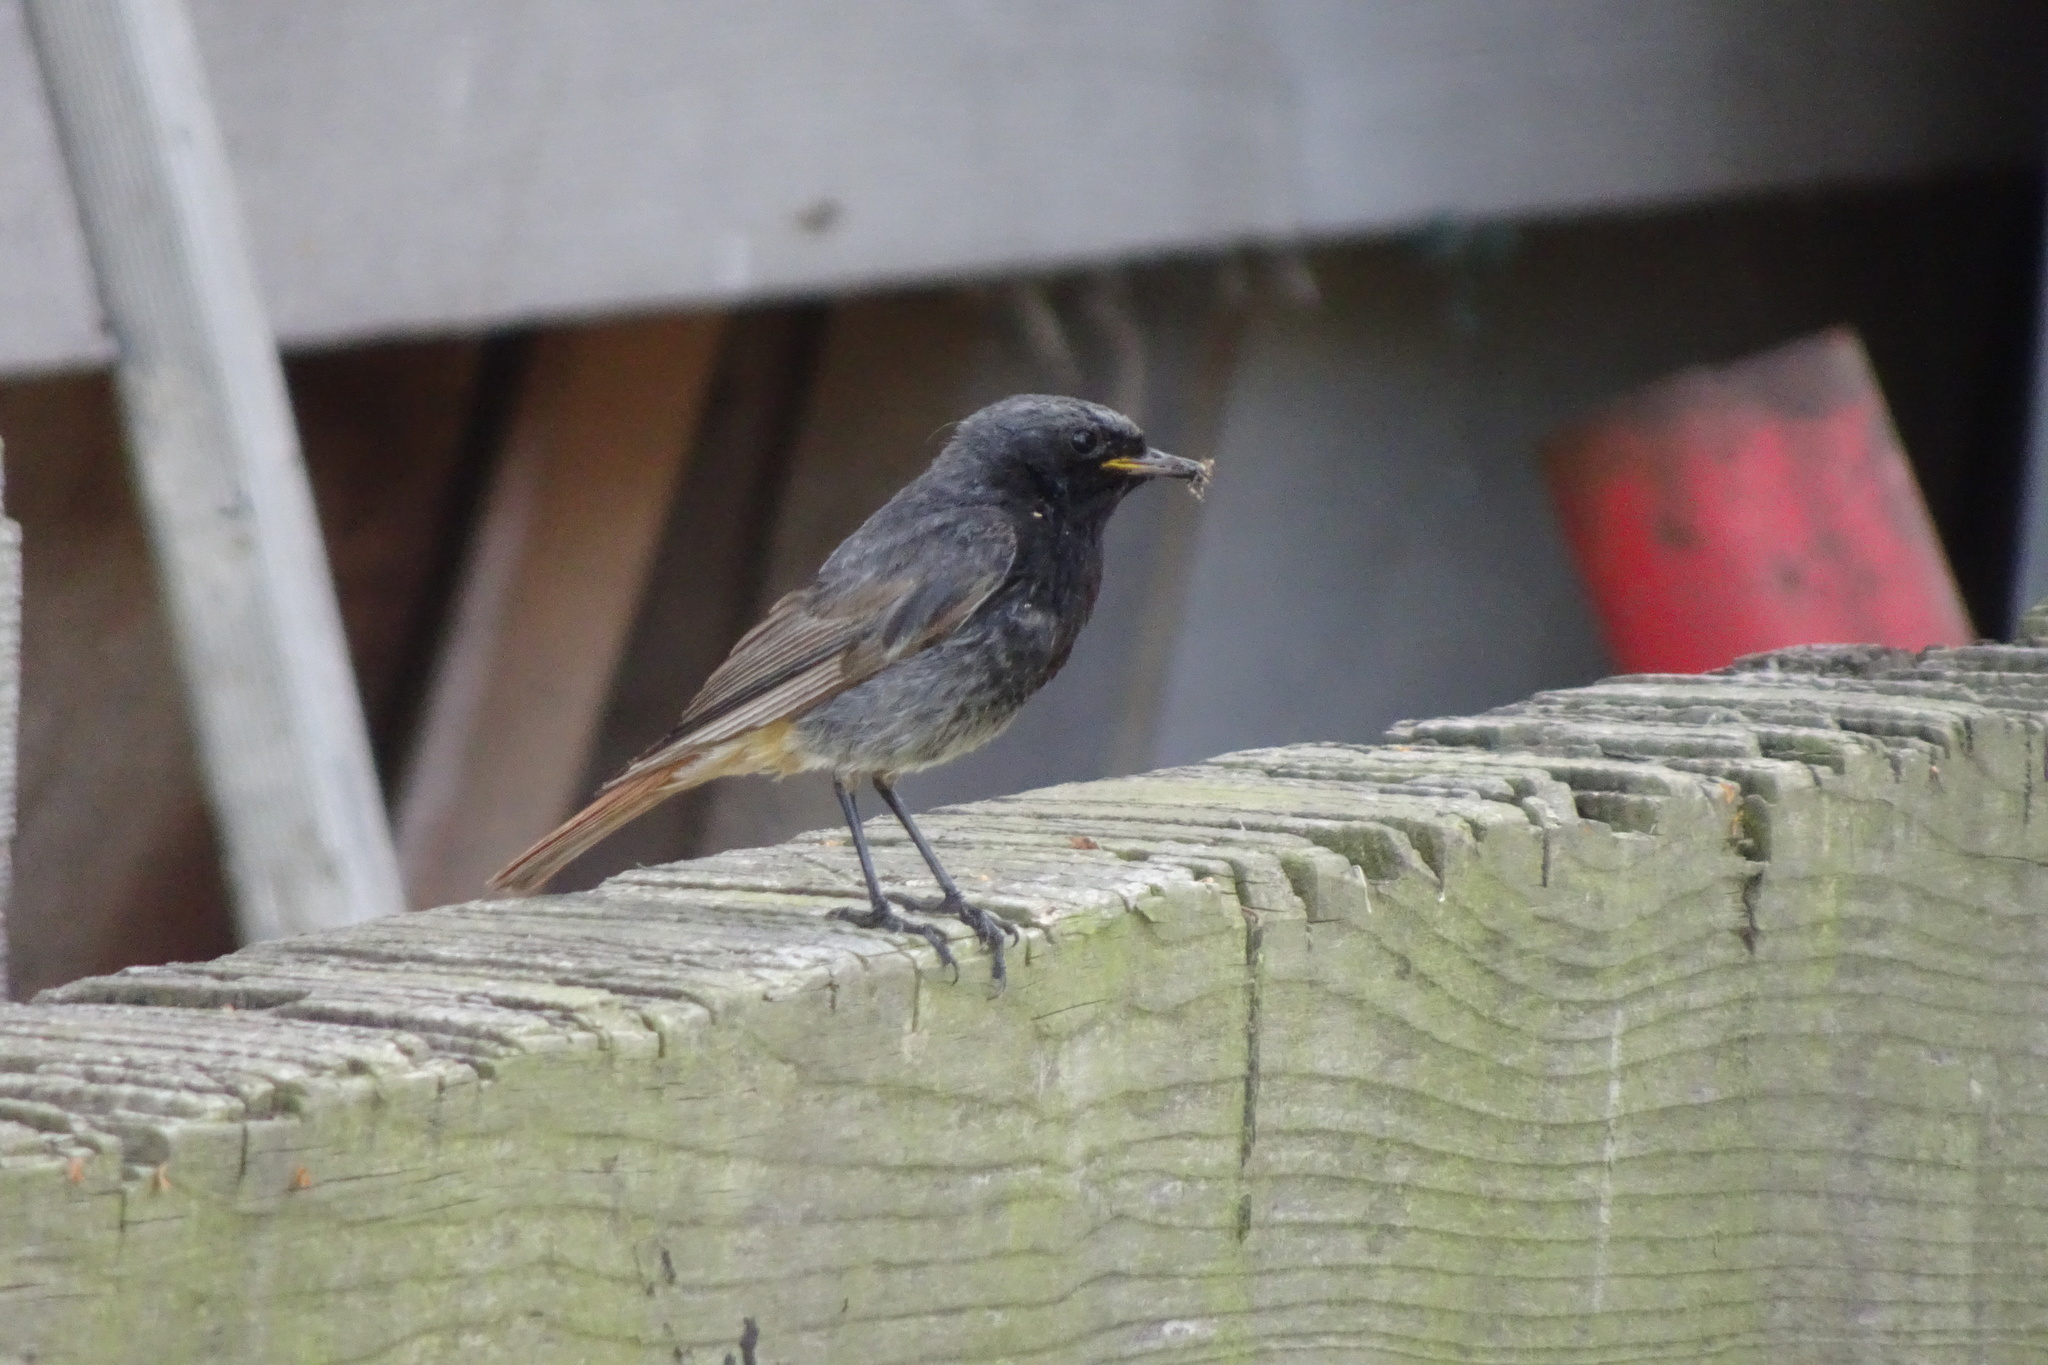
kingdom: Animalia
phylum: Chordata
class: Aves
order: Passeriformes
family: Muscicapidae
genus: Phoenicurus
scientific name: Phoenicurus ochruros
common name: Black redstart
